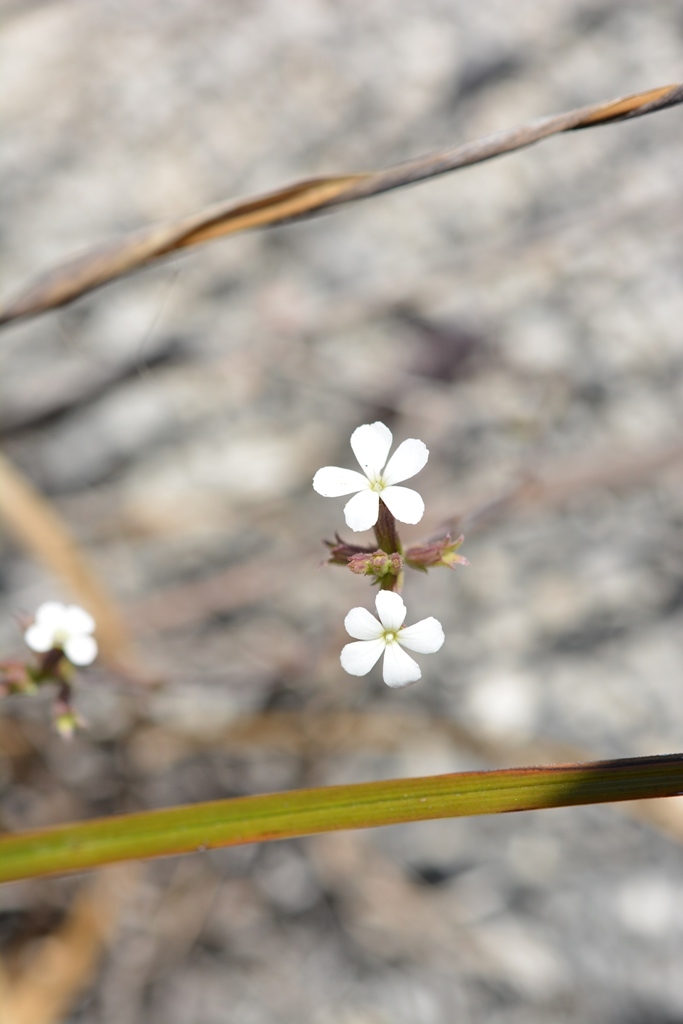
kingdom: Plantae
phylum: Tracheophyta
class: Magnoliopsida
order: Lamiales
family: Orobanchaceae
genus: Buchnera
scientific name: Buchnera pusilla
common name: Pygmy bluehearts
